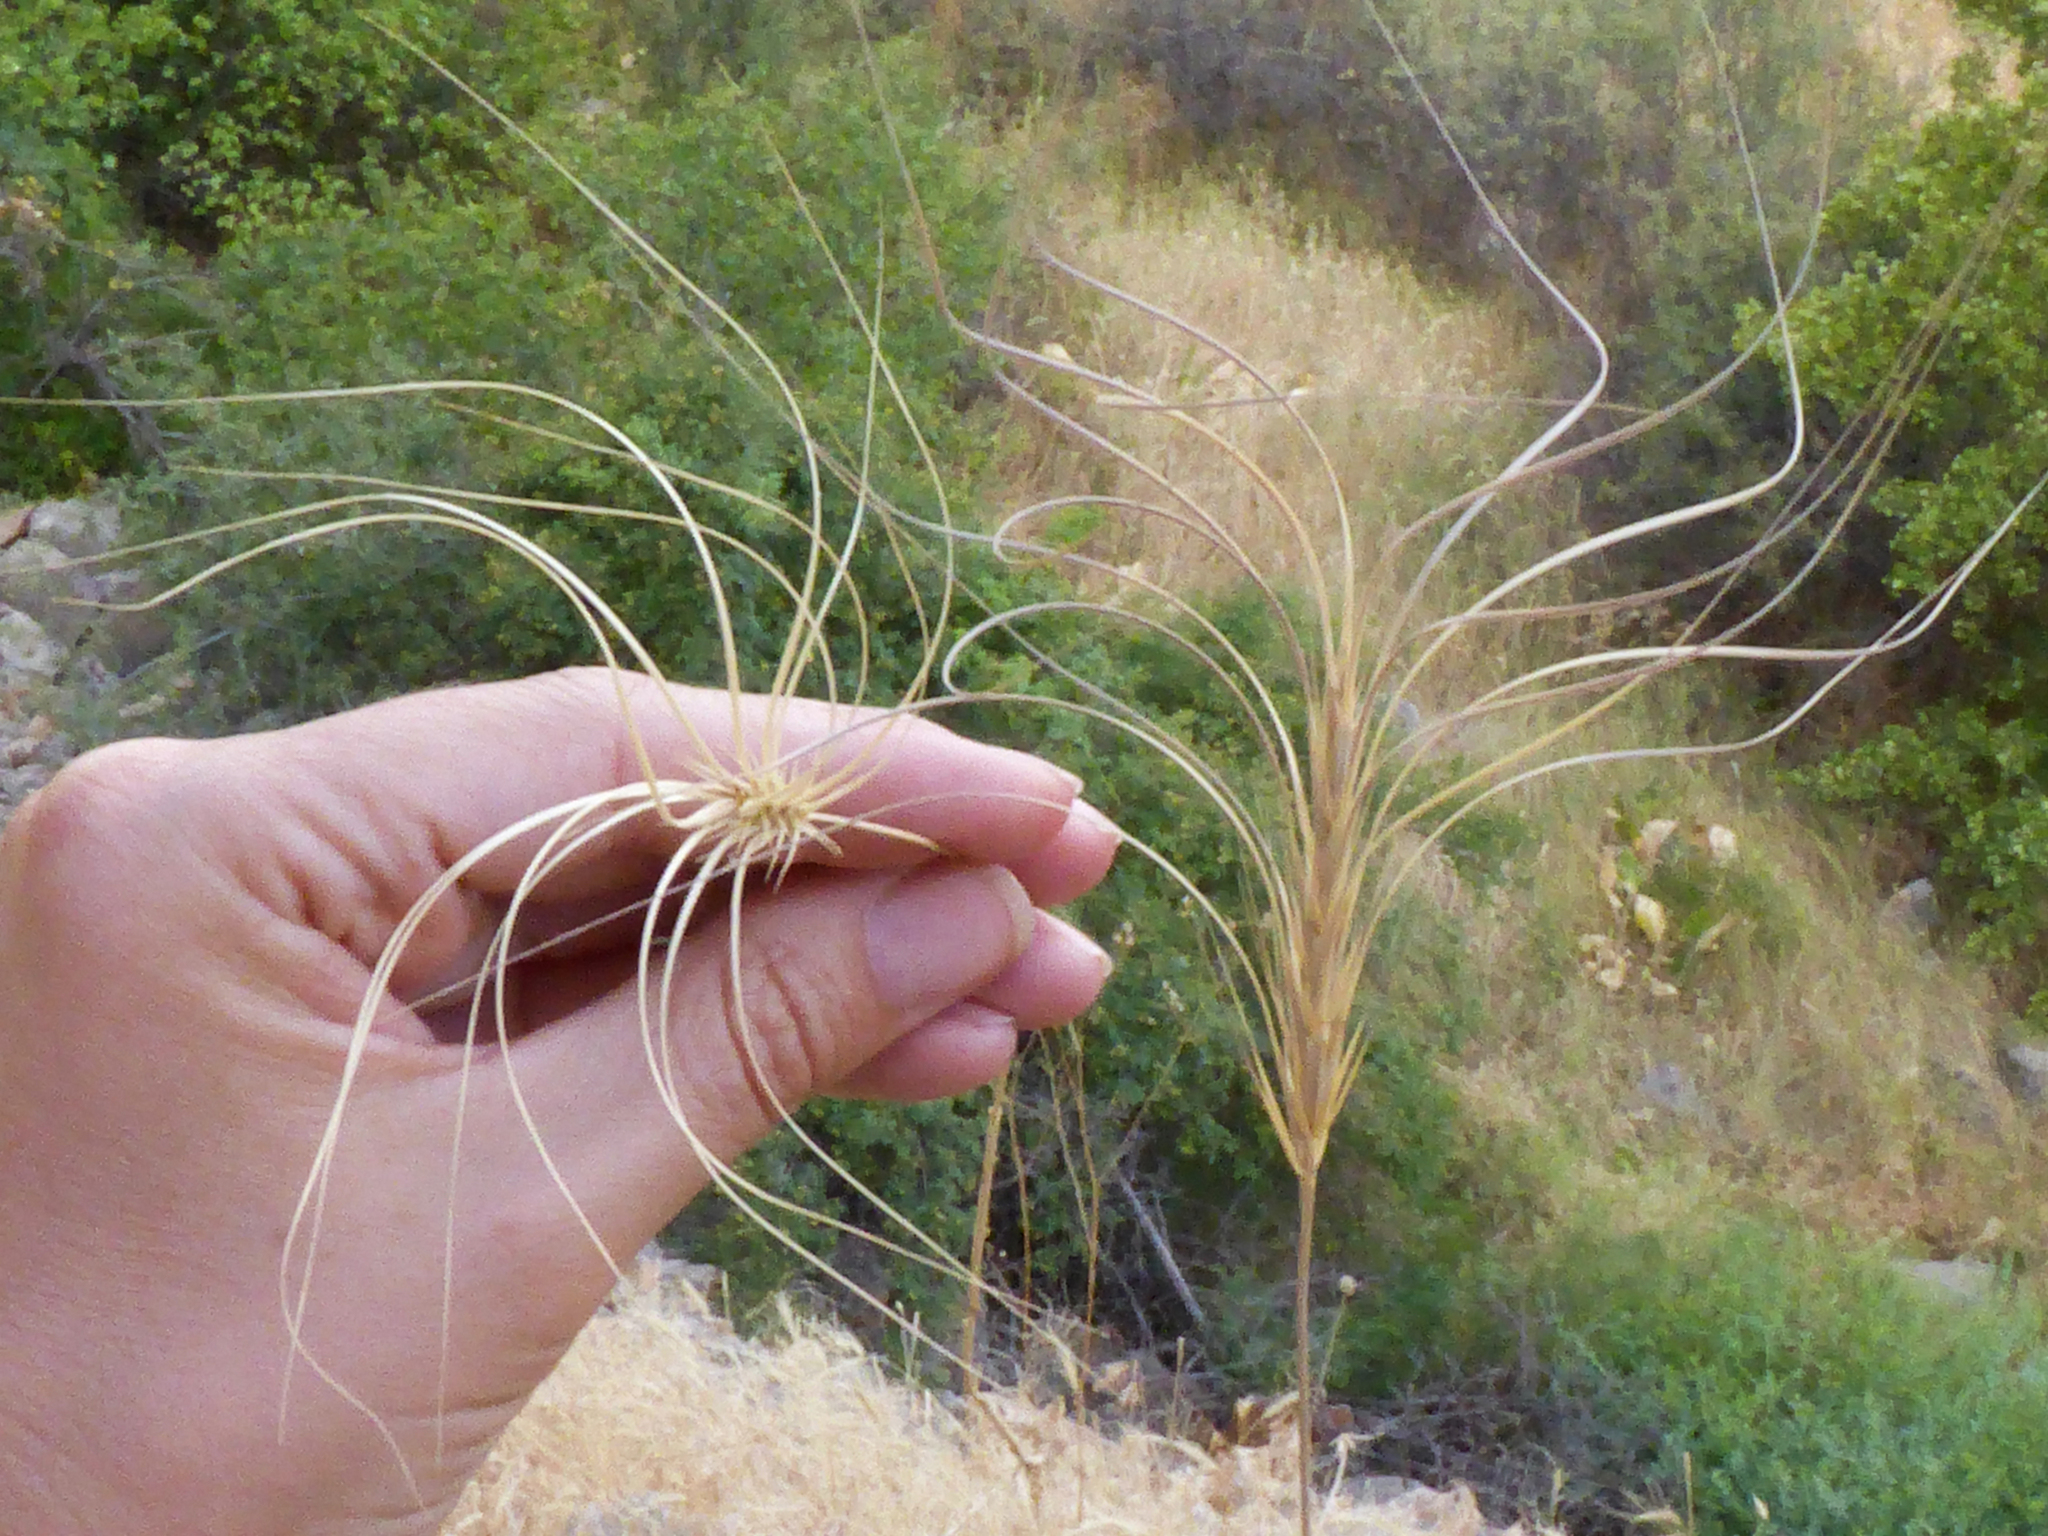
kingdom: Plantae
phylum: Tracheophyta
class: Liliopsida
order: Poales
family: Poaceae
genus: Taeniatherum
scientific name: Taeniatherum caput-medusae
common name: Medusahead
